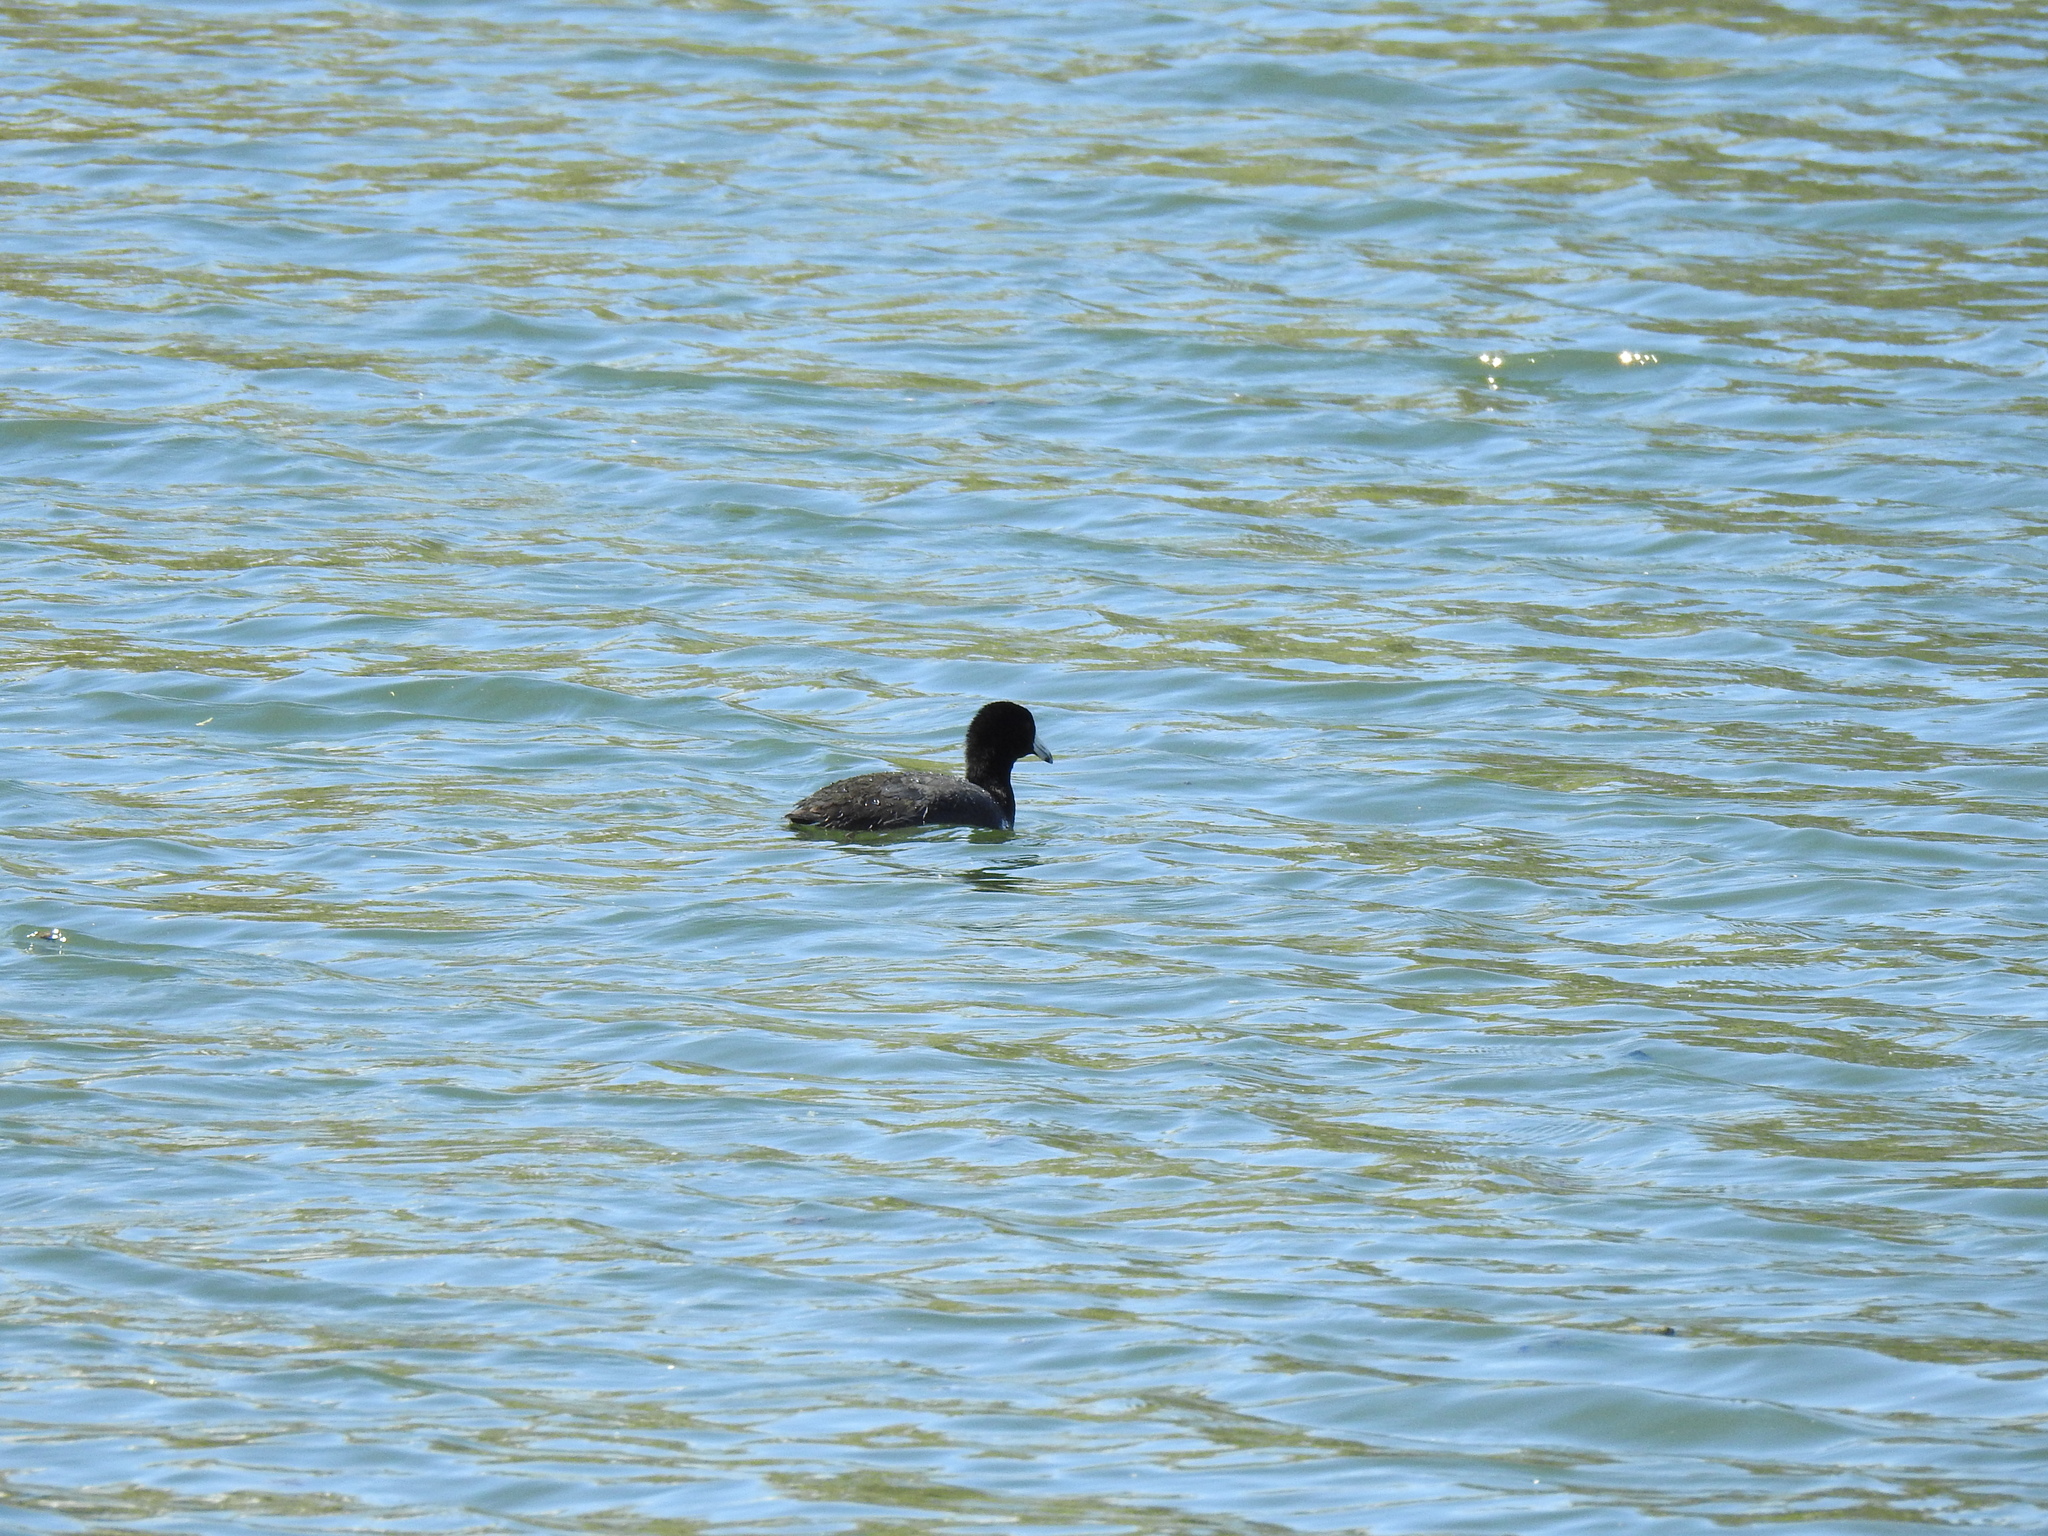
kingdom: Animalia
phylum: Chordata
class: Aves
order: Gruiformes
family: Rallidae
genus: Fulica
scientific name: Fulica americana
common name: American coot
